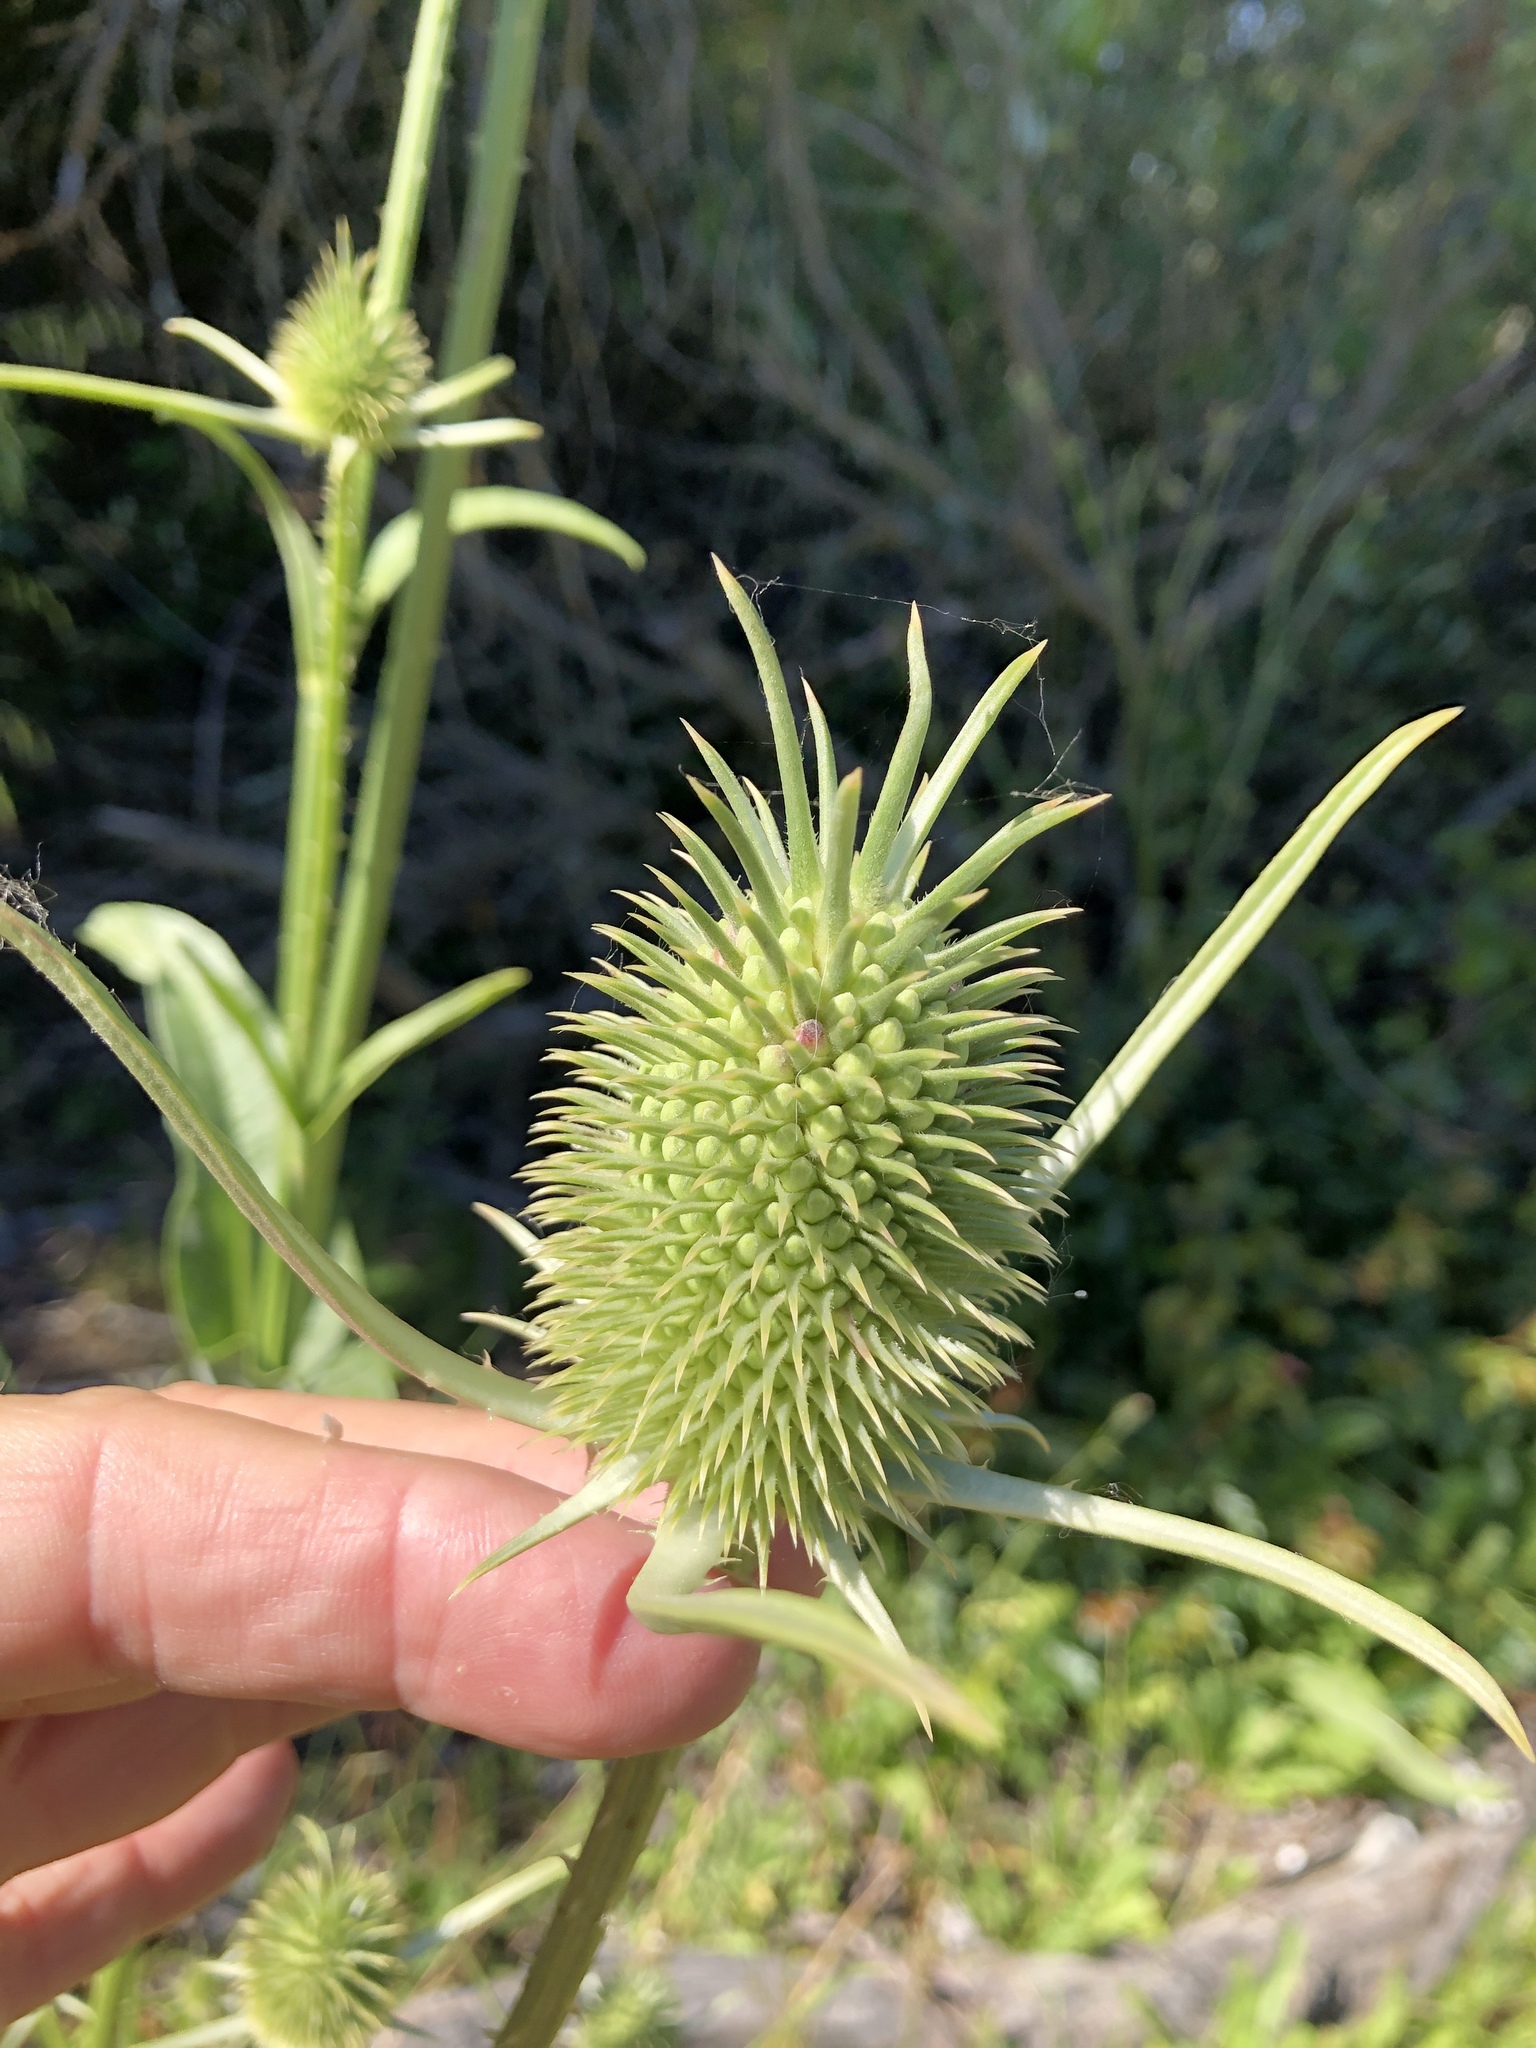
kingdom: Plantae
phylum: Tracheophyta
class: Magnoliopsida
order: Dipsacales
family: Caprifoliaceae
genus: Dipsacus
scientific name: Dipsacus sativus
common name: Fuller's teasel
